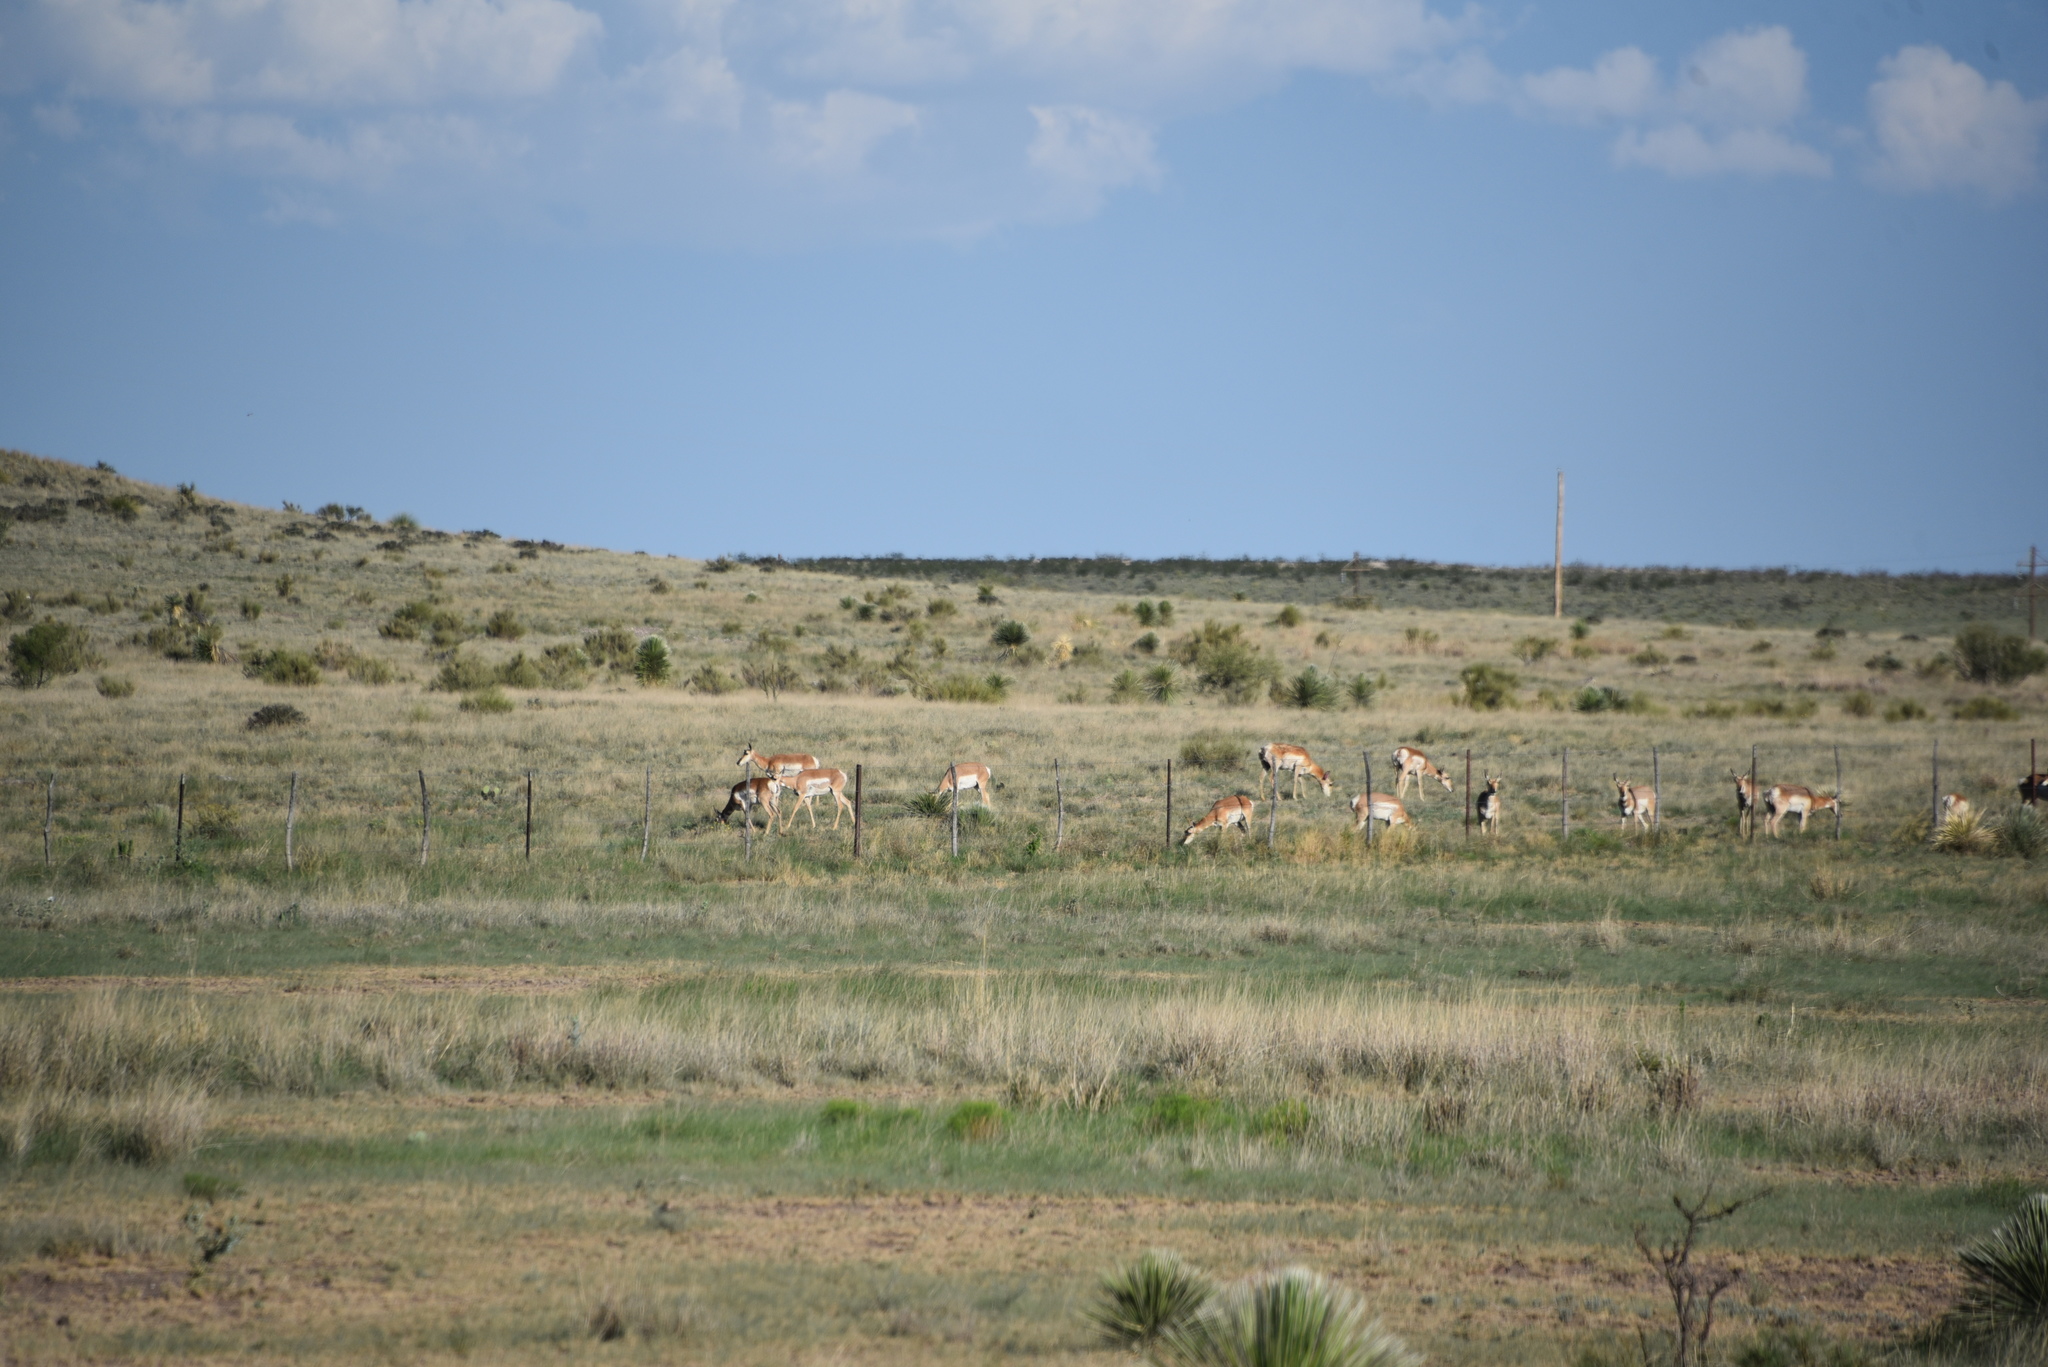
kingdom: Animalia
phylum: Chordata
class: Mammalia
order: Artiodactyla
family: Antilocapridae
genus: Antilocapra
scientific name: Antilocapra americana
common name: Pronghorn
